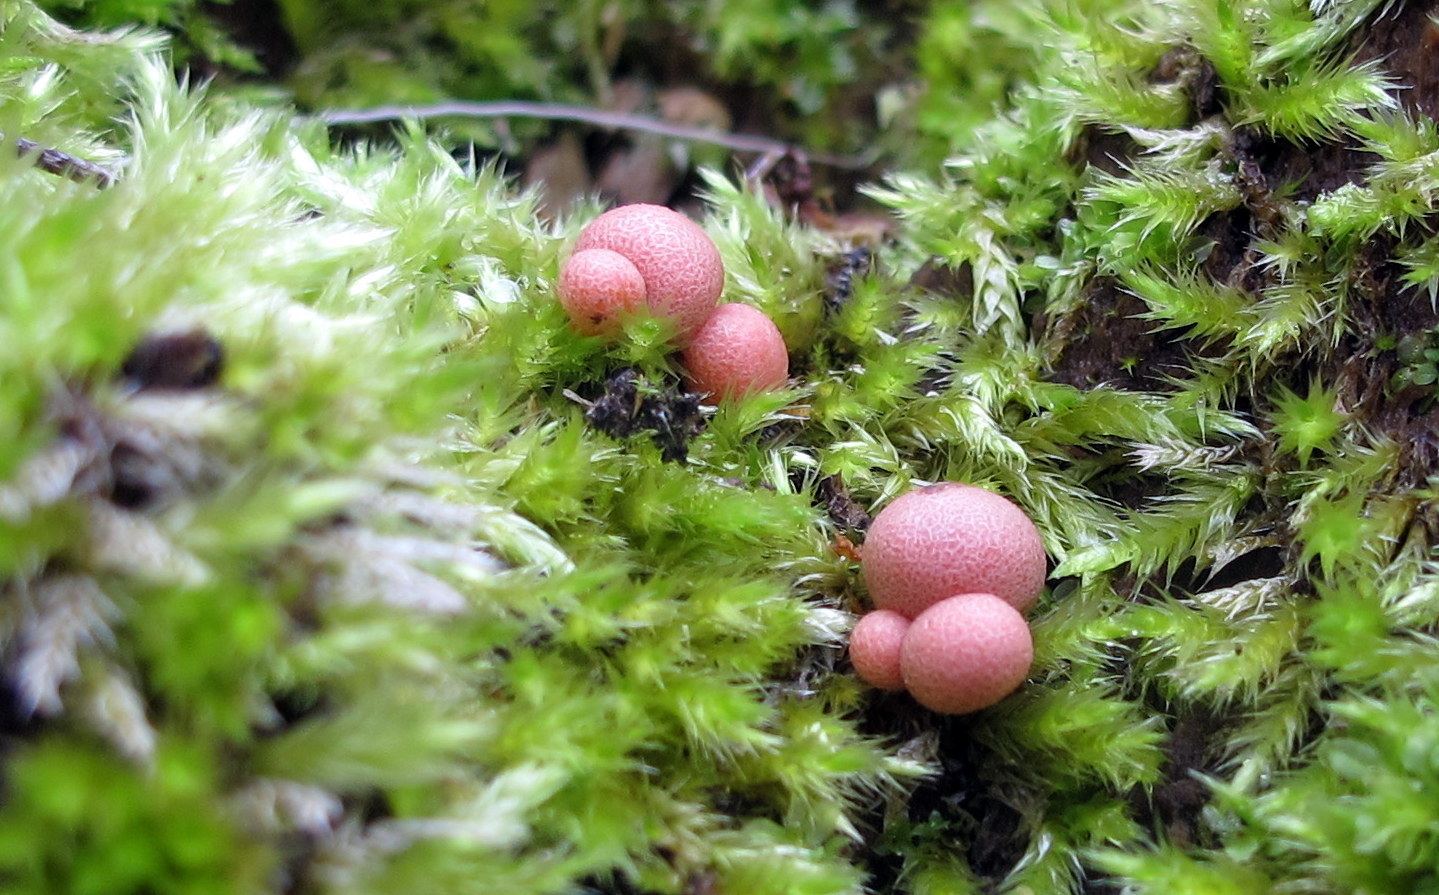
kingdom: Protozoa
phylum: Mycetozoa
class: Myxomycetes
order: Cribrariales
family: Tubiferaceae
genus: Lycogala
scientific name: Lycogala epidendrum
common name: Wolf's milk
